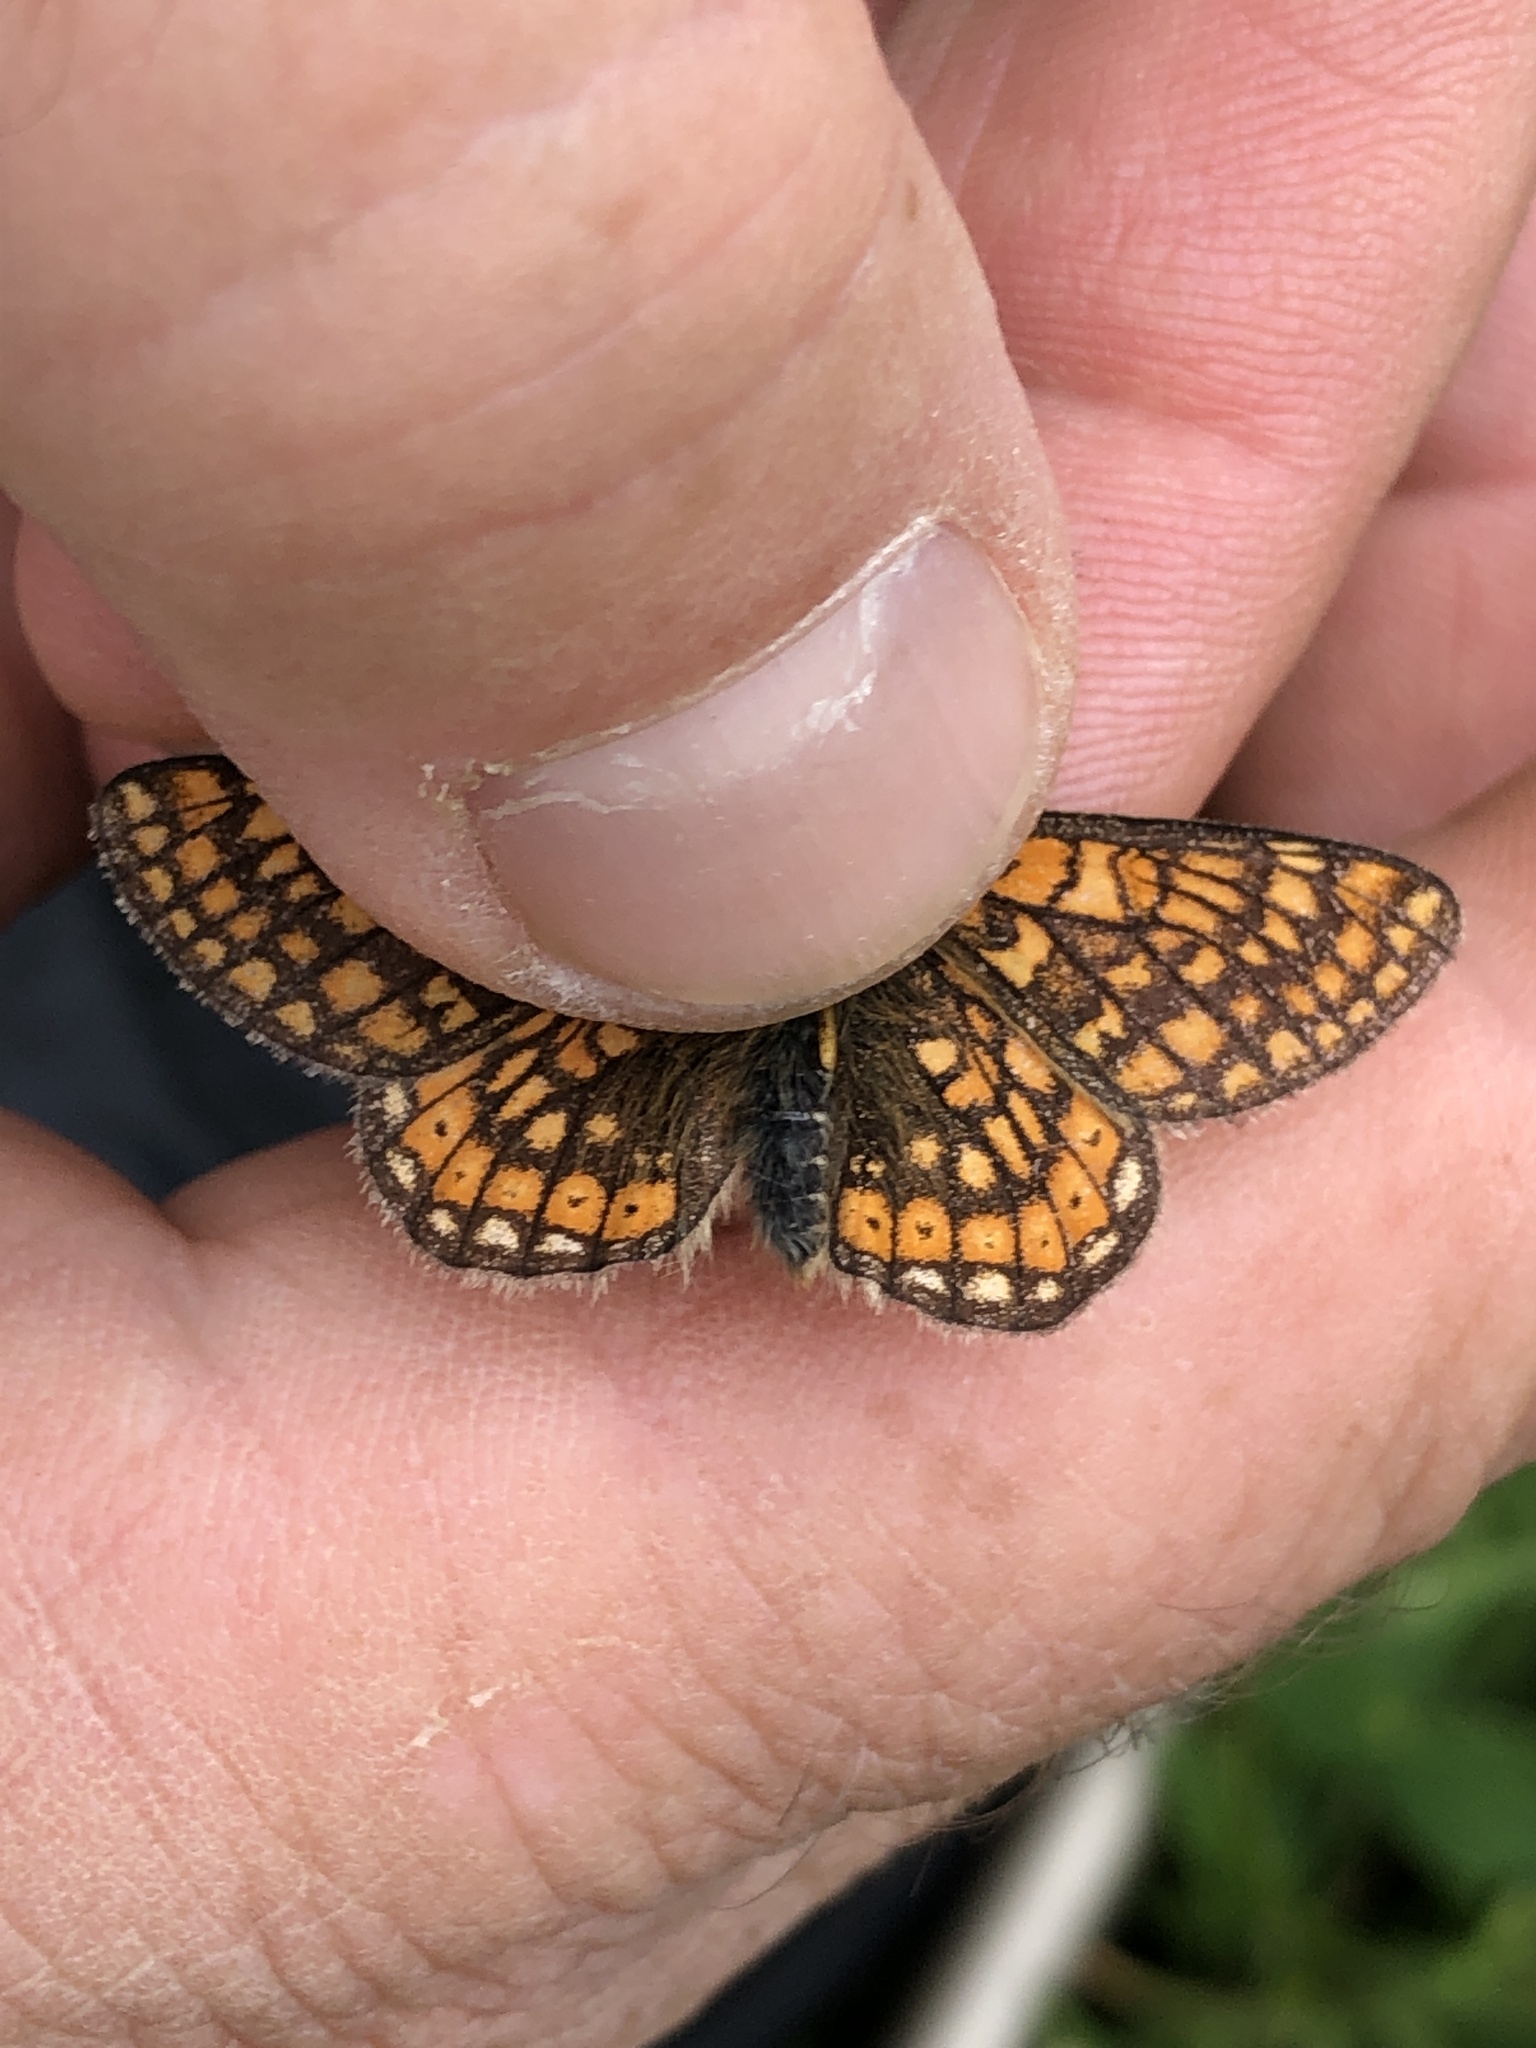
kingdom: Animalia
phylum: Arthropoda
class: Insecta
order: Lepidoptera
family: Nymphalidae
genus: Euphydryas
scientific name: Euphydryas aurinia
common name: Marsh fritillary
